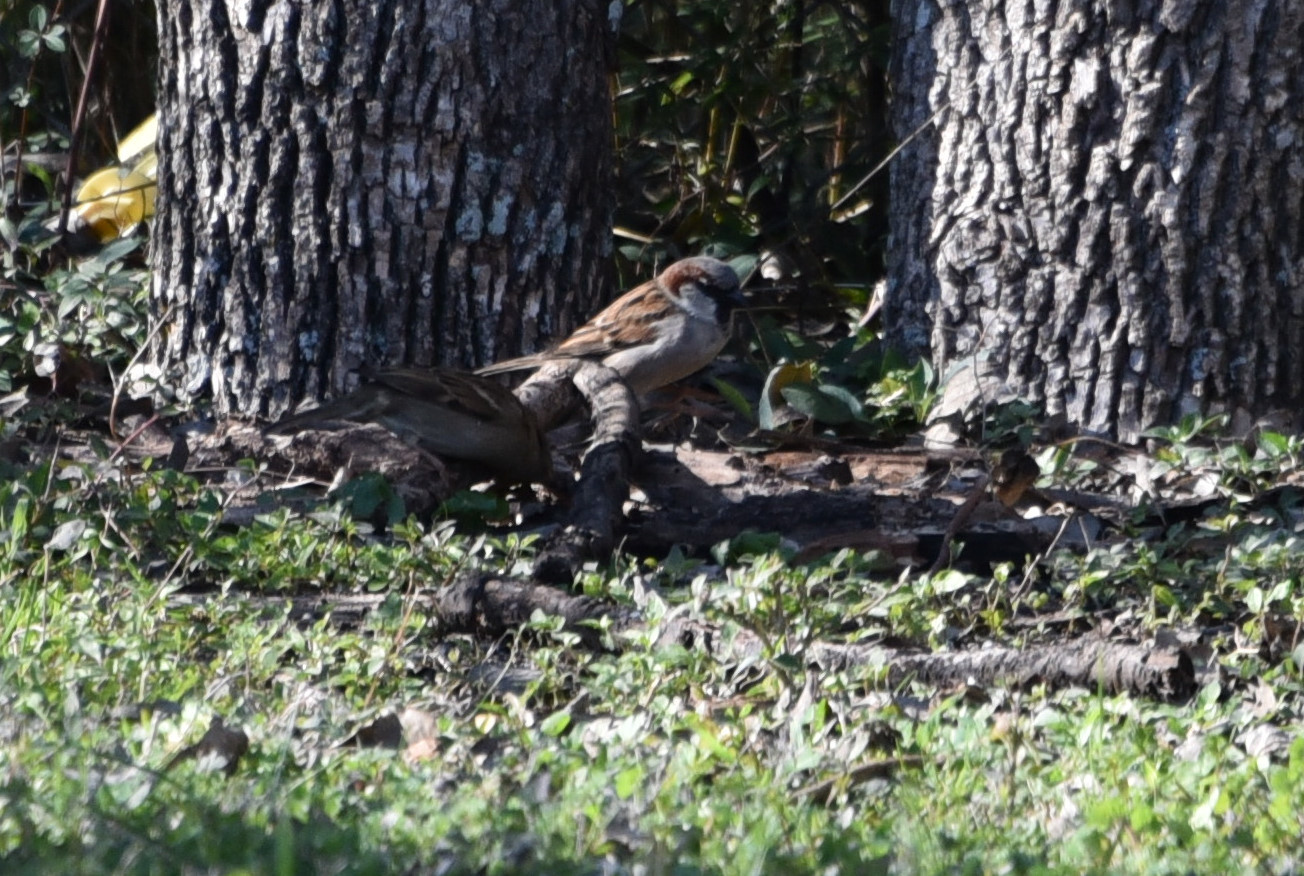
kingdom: Animalia
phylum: Chordata
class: Aves
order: Passeriformes
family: Passeridae
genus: Passer
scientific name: Passer domesticus
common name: House sparrow
